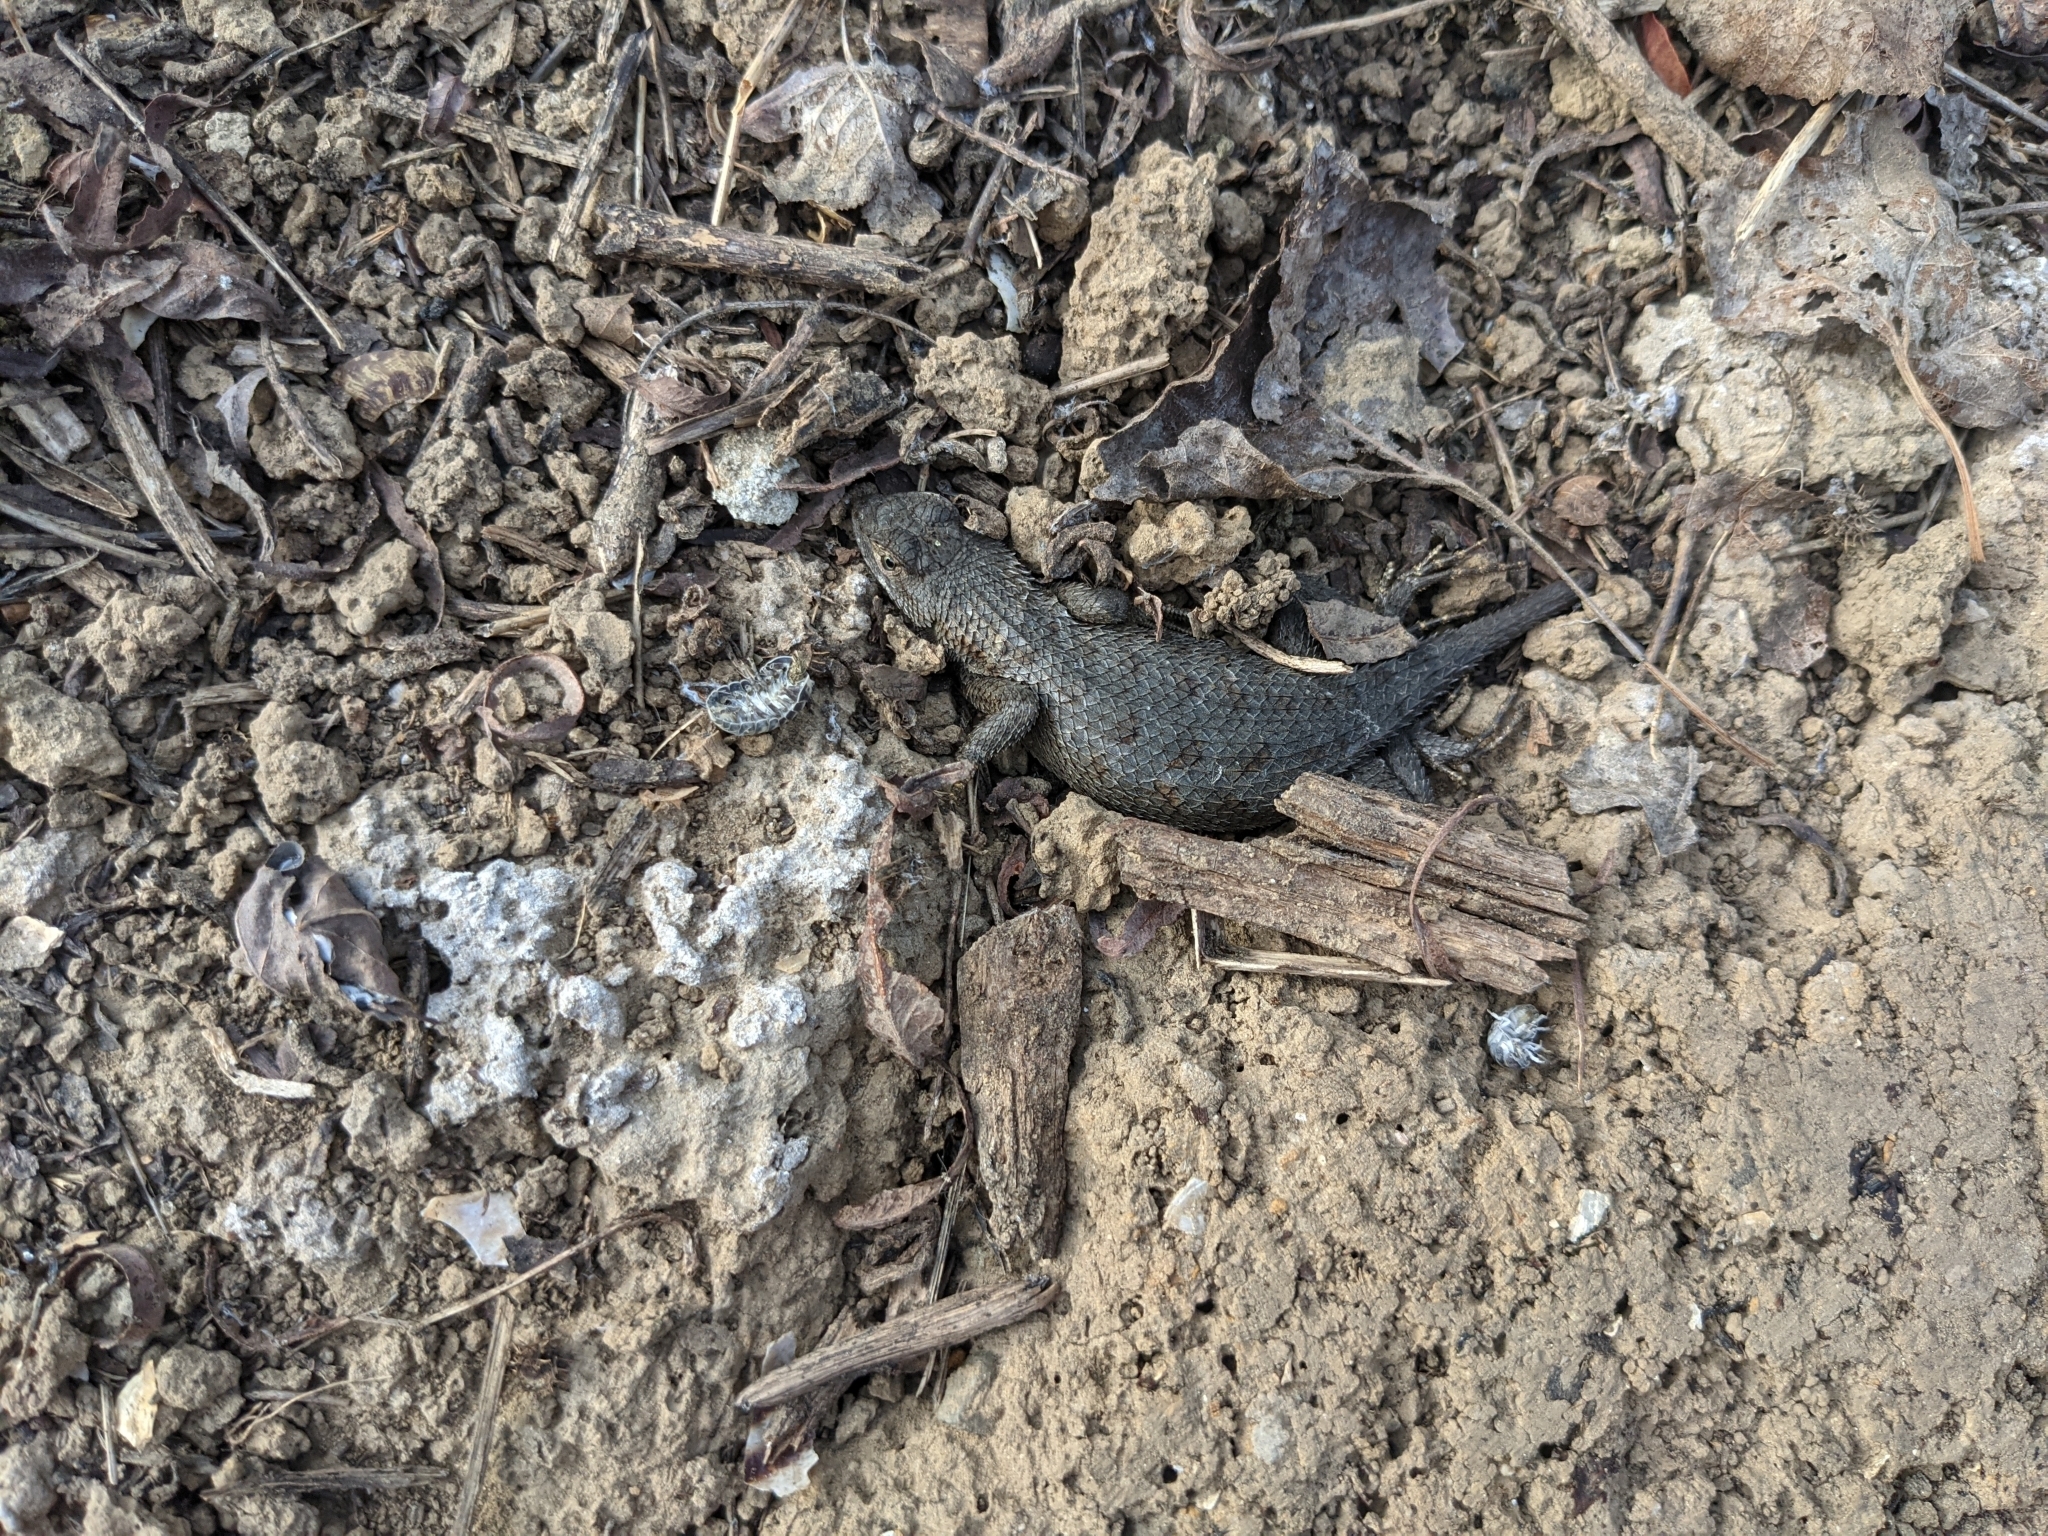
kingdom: Animalia
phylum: Chordata
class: Squamata
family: Phrynosomatidae
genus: Sceloporus
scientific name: Sceloporus occidentalis
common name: Western fence lizard
